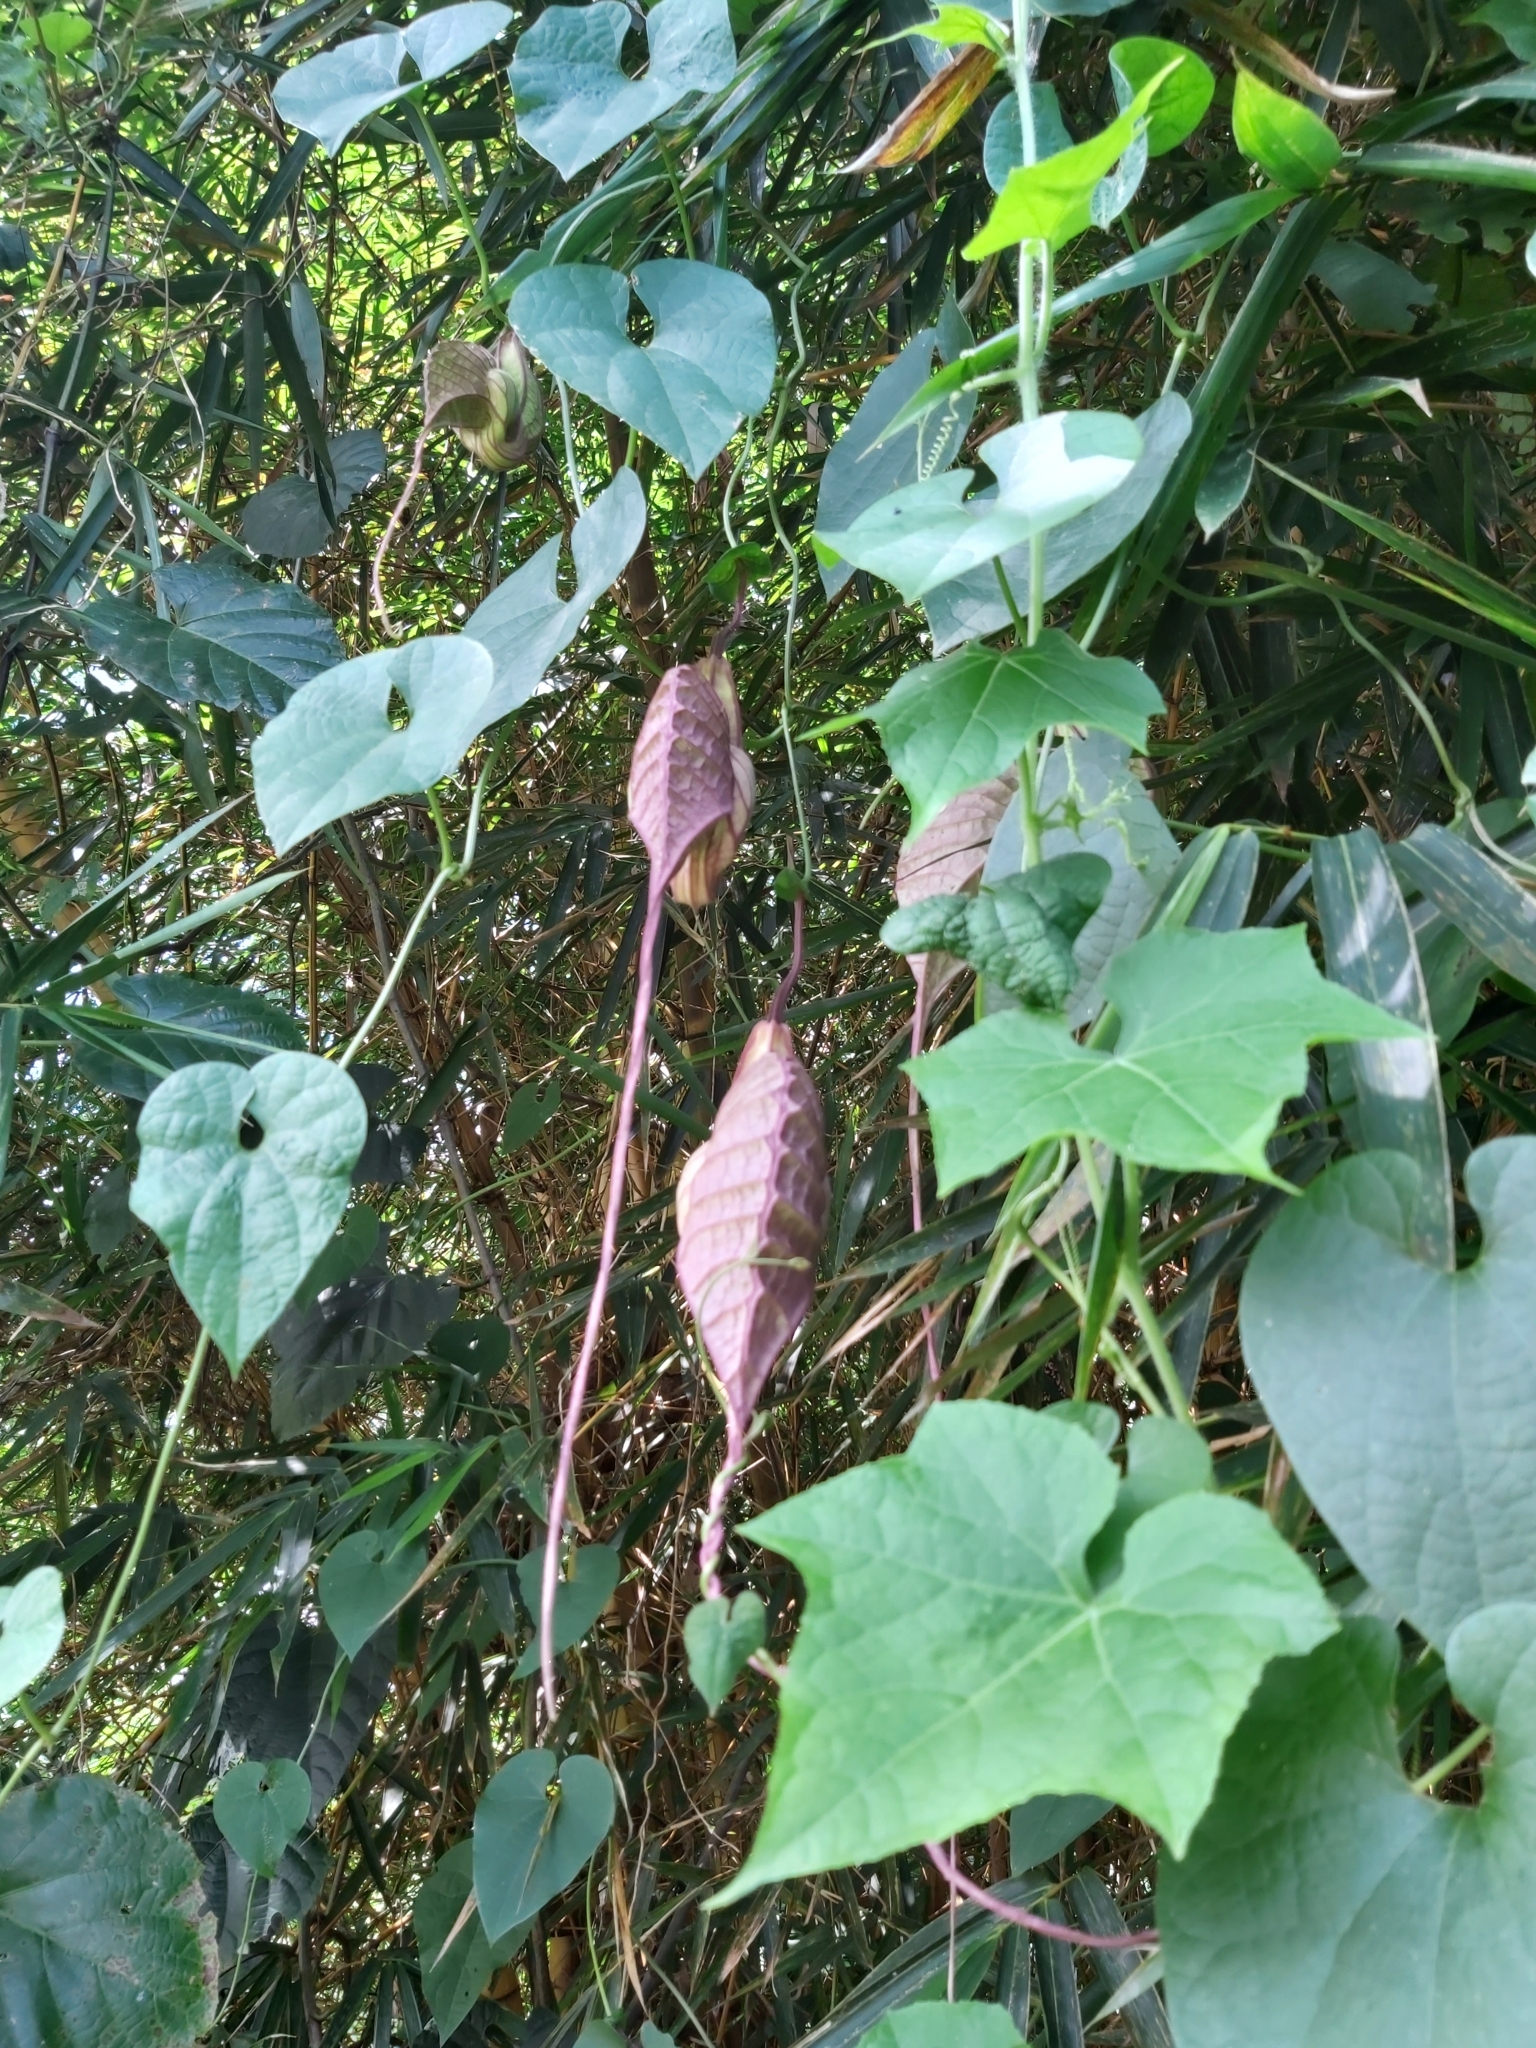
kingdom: Plantae
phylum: Tracheophyta
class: Magnoliopsida
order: Piperales
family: Aristolochiaceae
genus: Aristolochia
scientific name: Aristolochia grandiflora
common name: Pelicanflower
